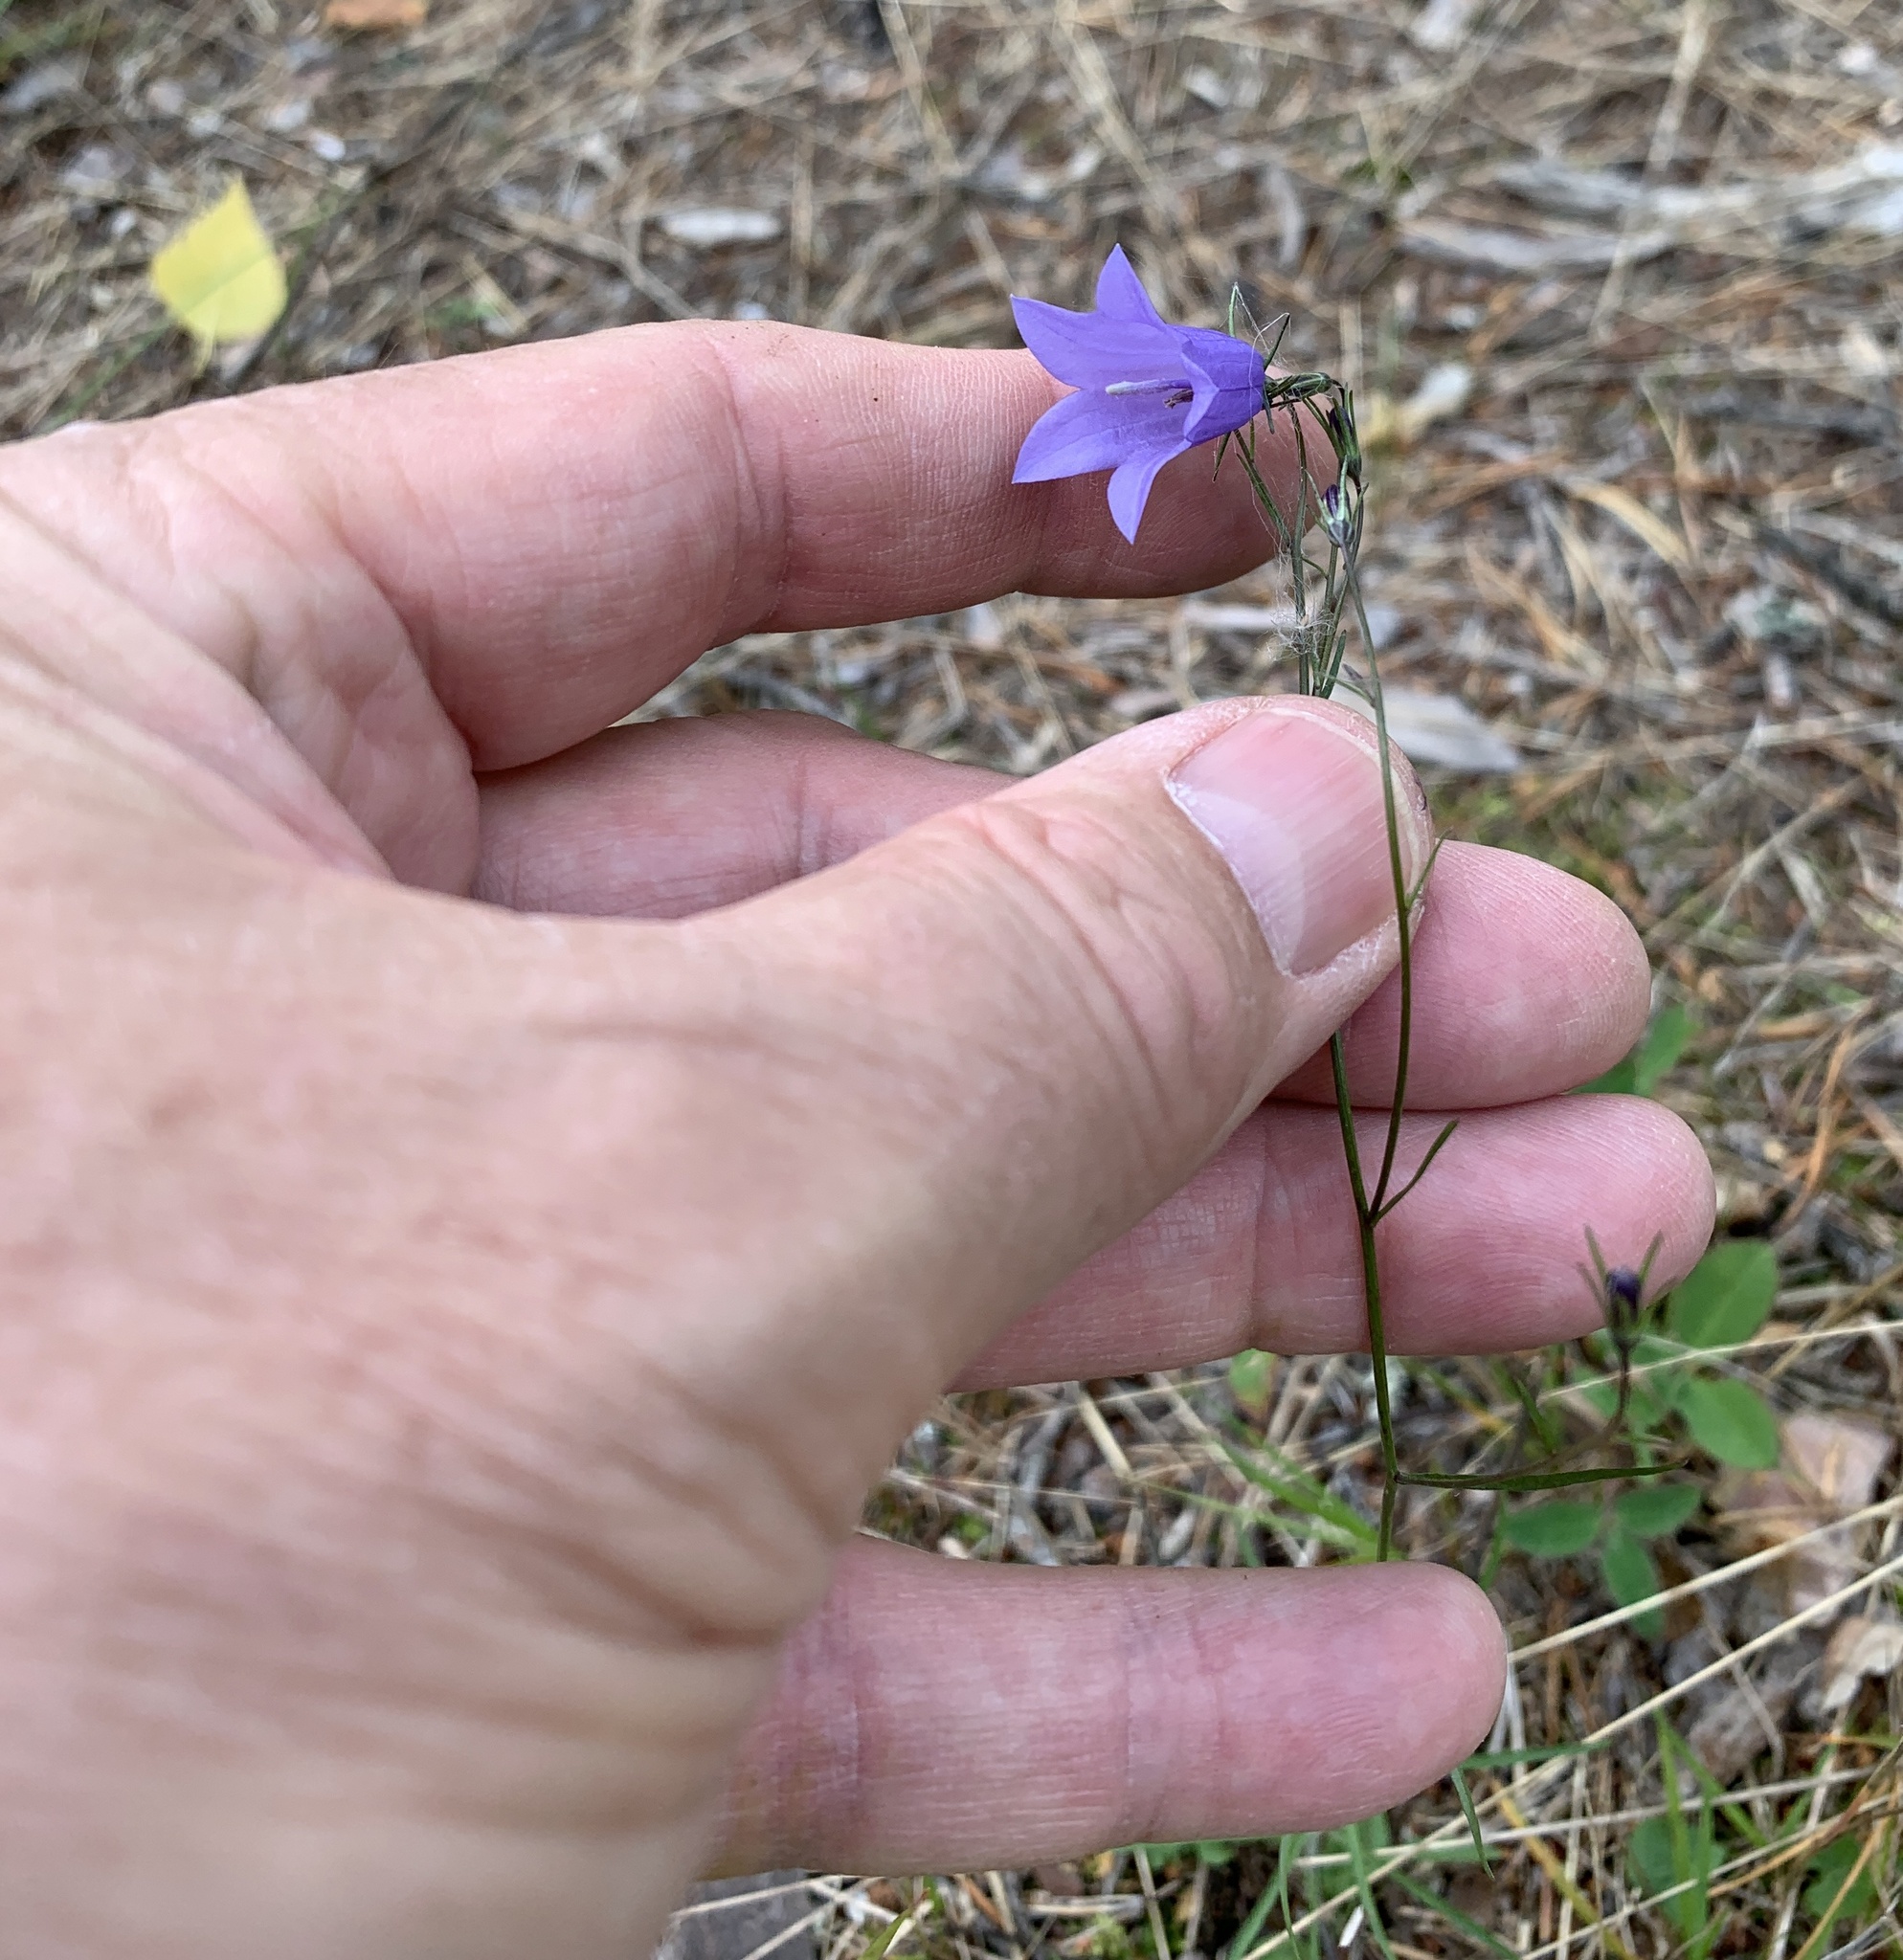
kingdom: Plantae
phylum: Tracheophyta
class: Magnoliopsida
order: Asterales
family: Campanulaceae
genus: Campanula
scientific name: Campanula rotundifolia
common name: Harebell
